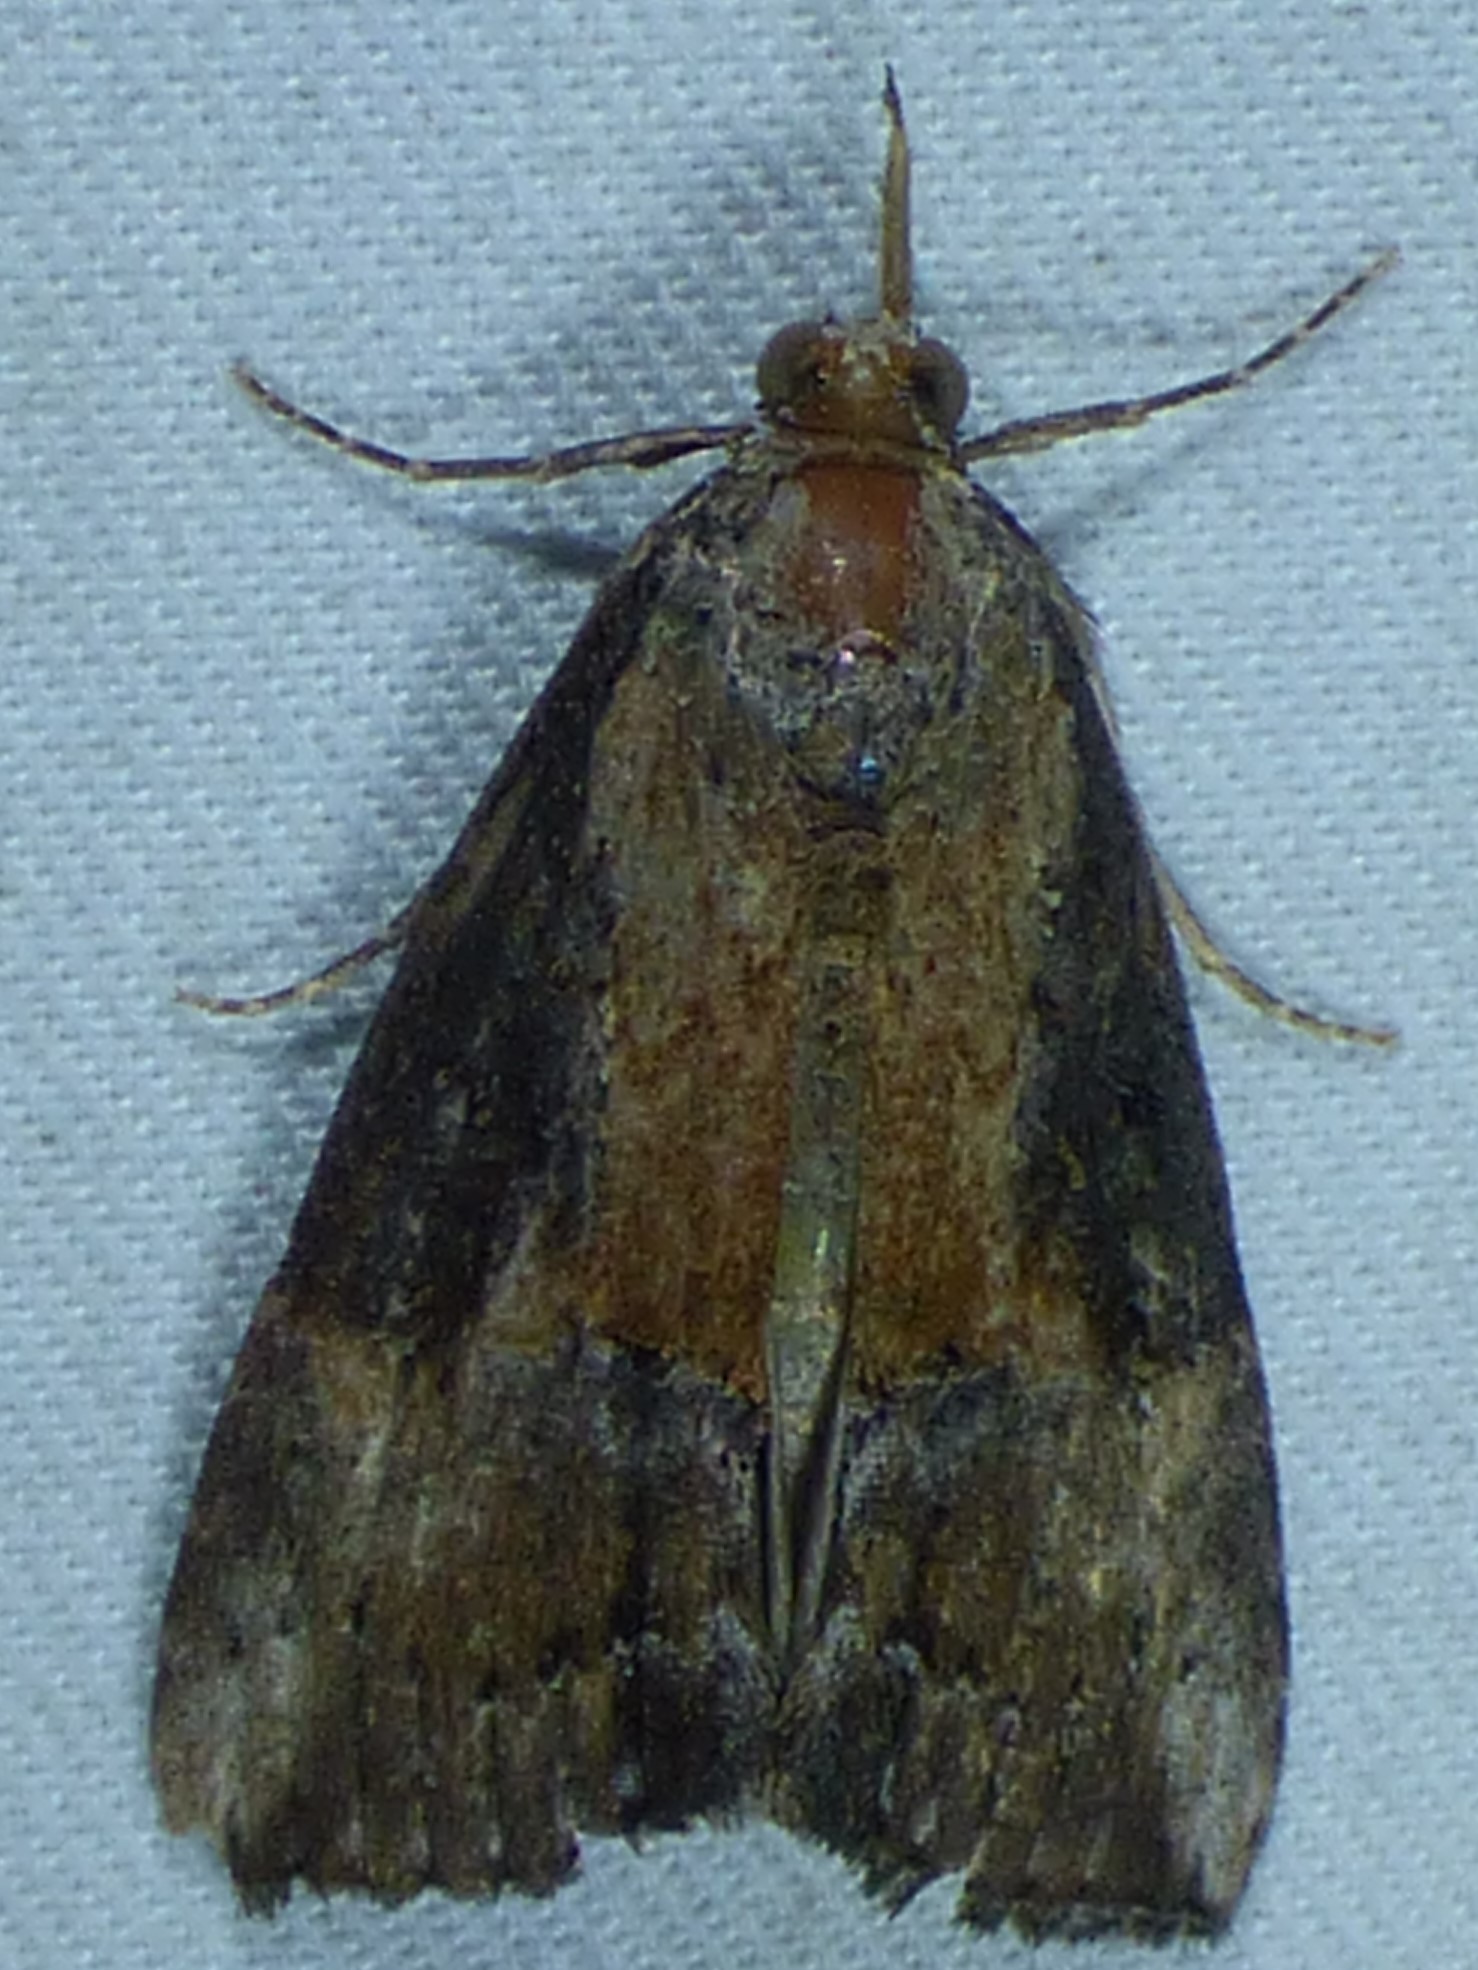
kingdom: Animalia
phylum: Arthropoda
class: Insecta
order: Lepidoptera
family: Erebidae
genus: Hypena
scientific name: Hypena scabra
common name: Green cloverworm
